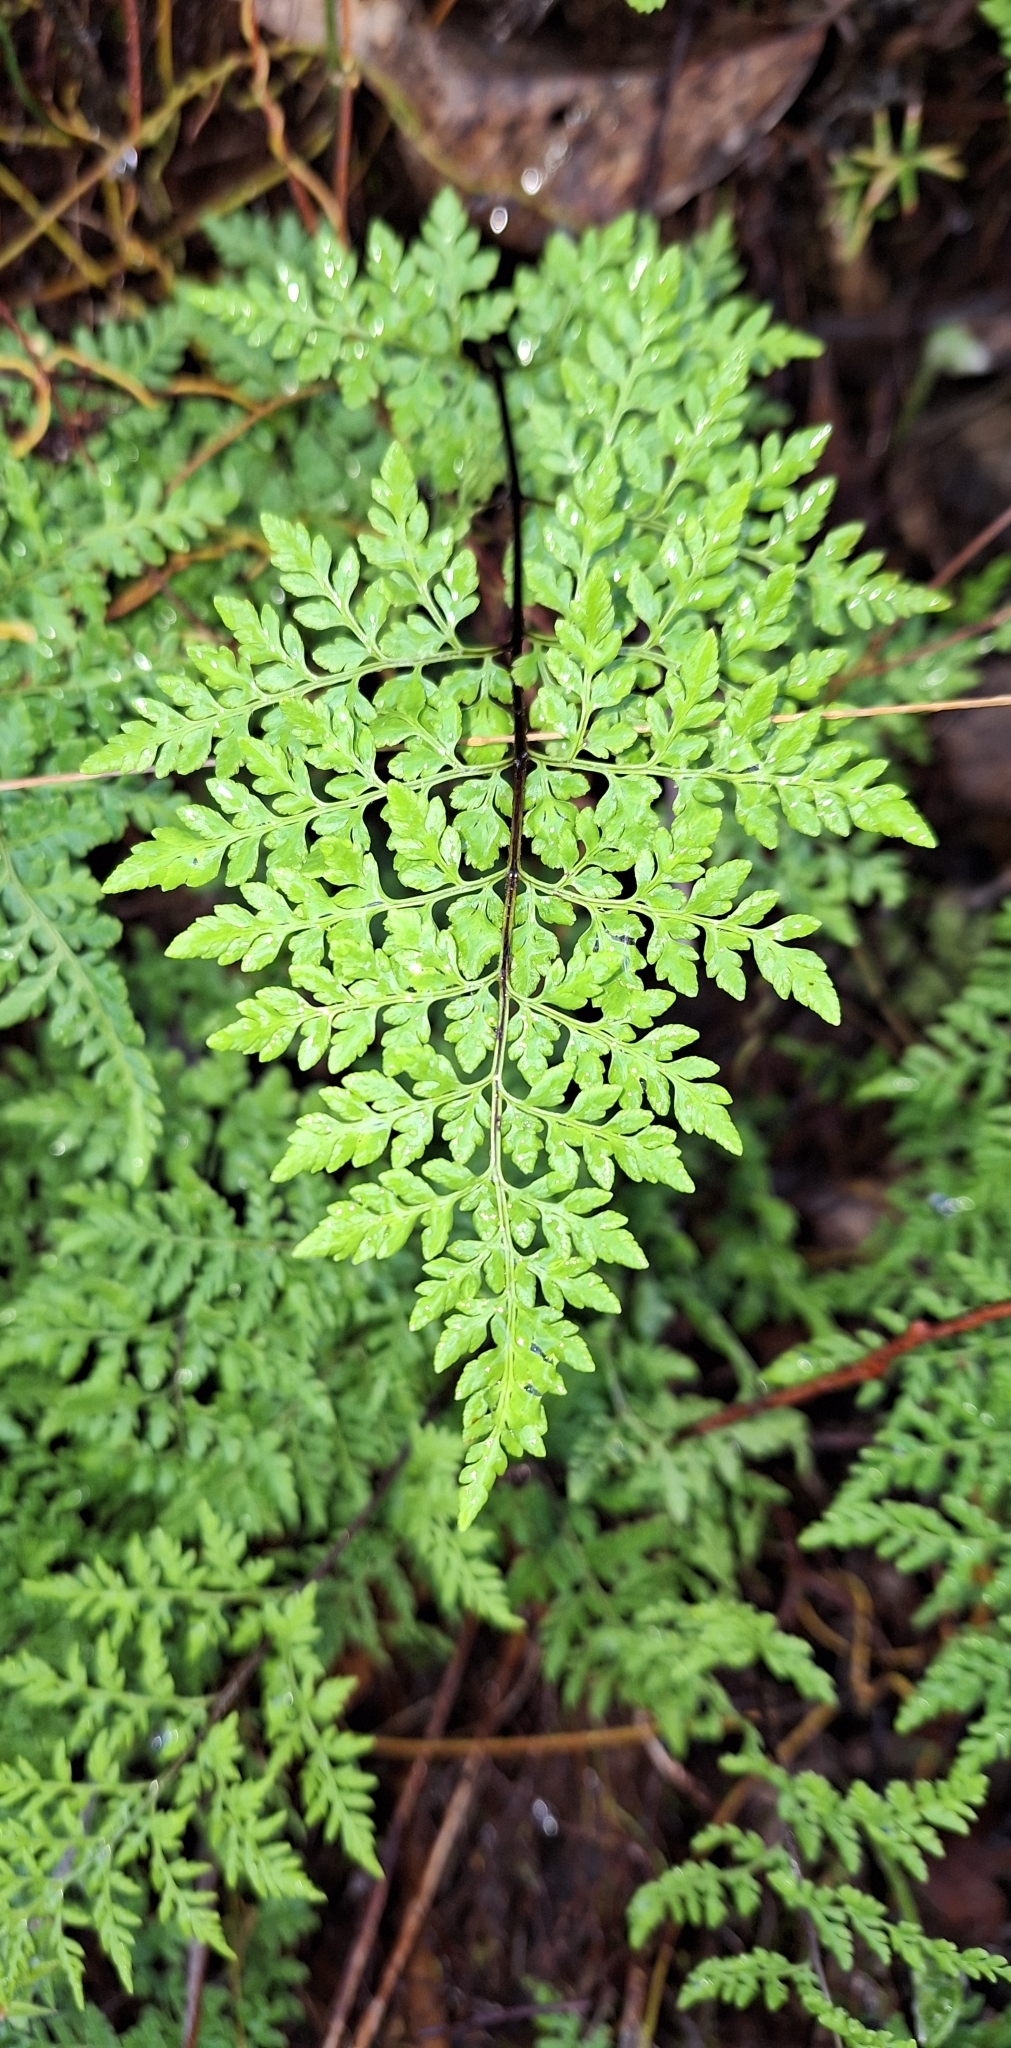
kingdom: Plantae
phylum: Tracheophyta
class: Polypodiopsida
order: Polypodiales
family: Pteridaceae
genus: Cheilanthes
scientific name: Cheilanthes austrotenuifolia
